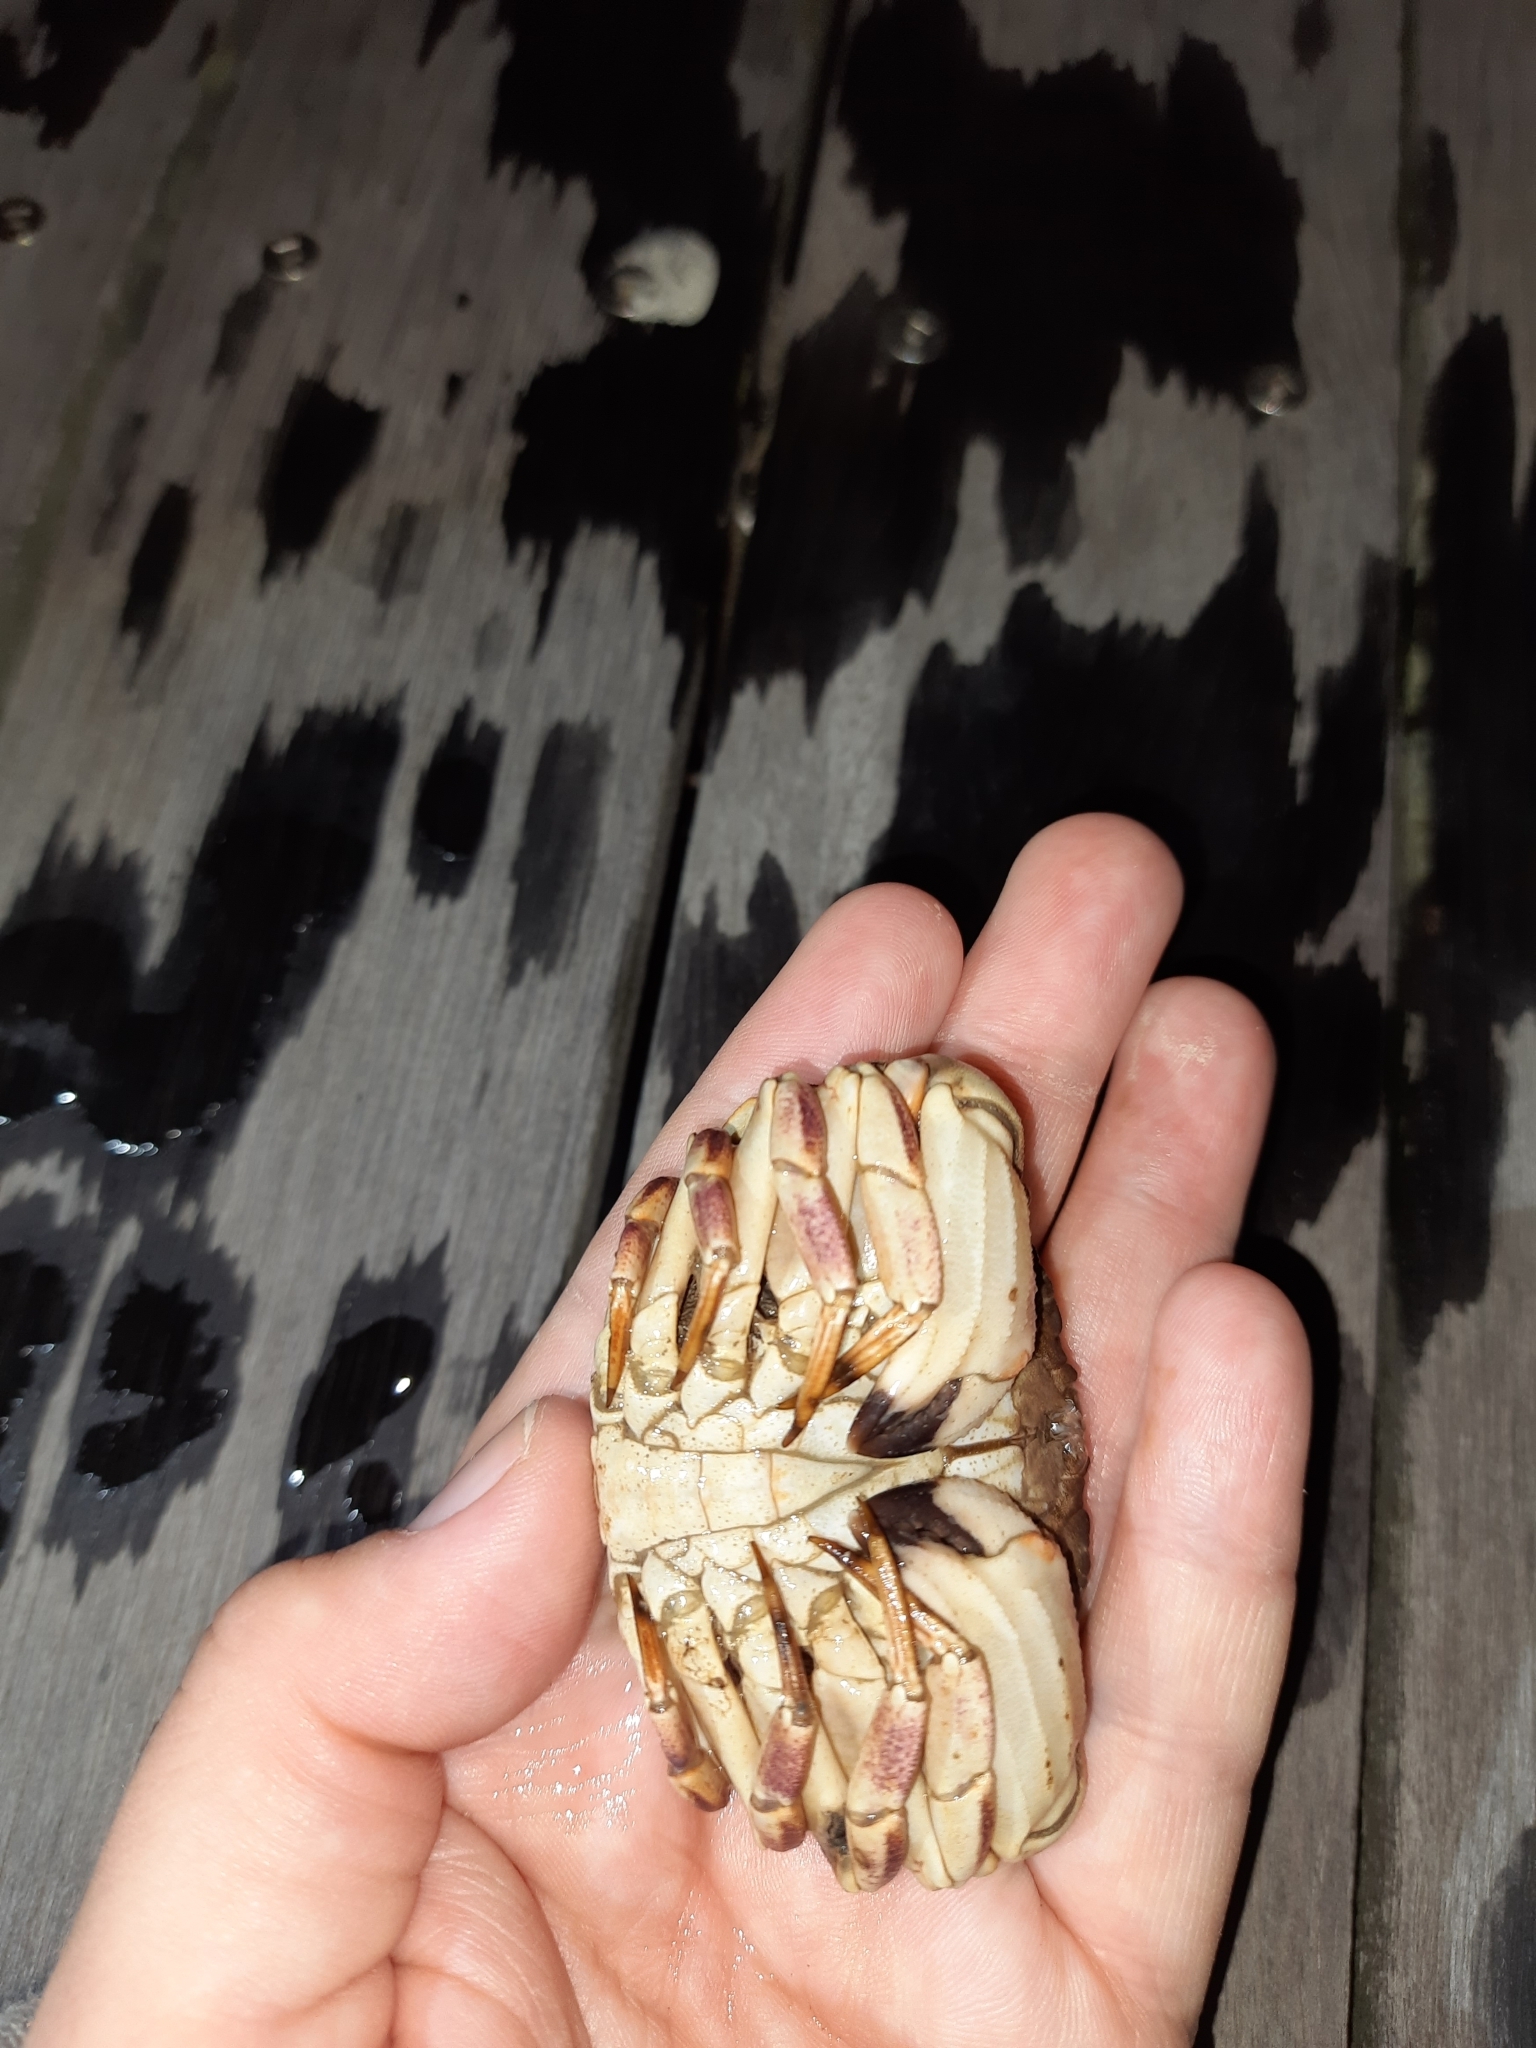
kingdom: Animalia
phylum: Arthropoda
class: Malacostraca
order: Decapoda
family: Cancridae
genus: Metacarcinus
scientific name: Metacarcinus novaezelandiae
